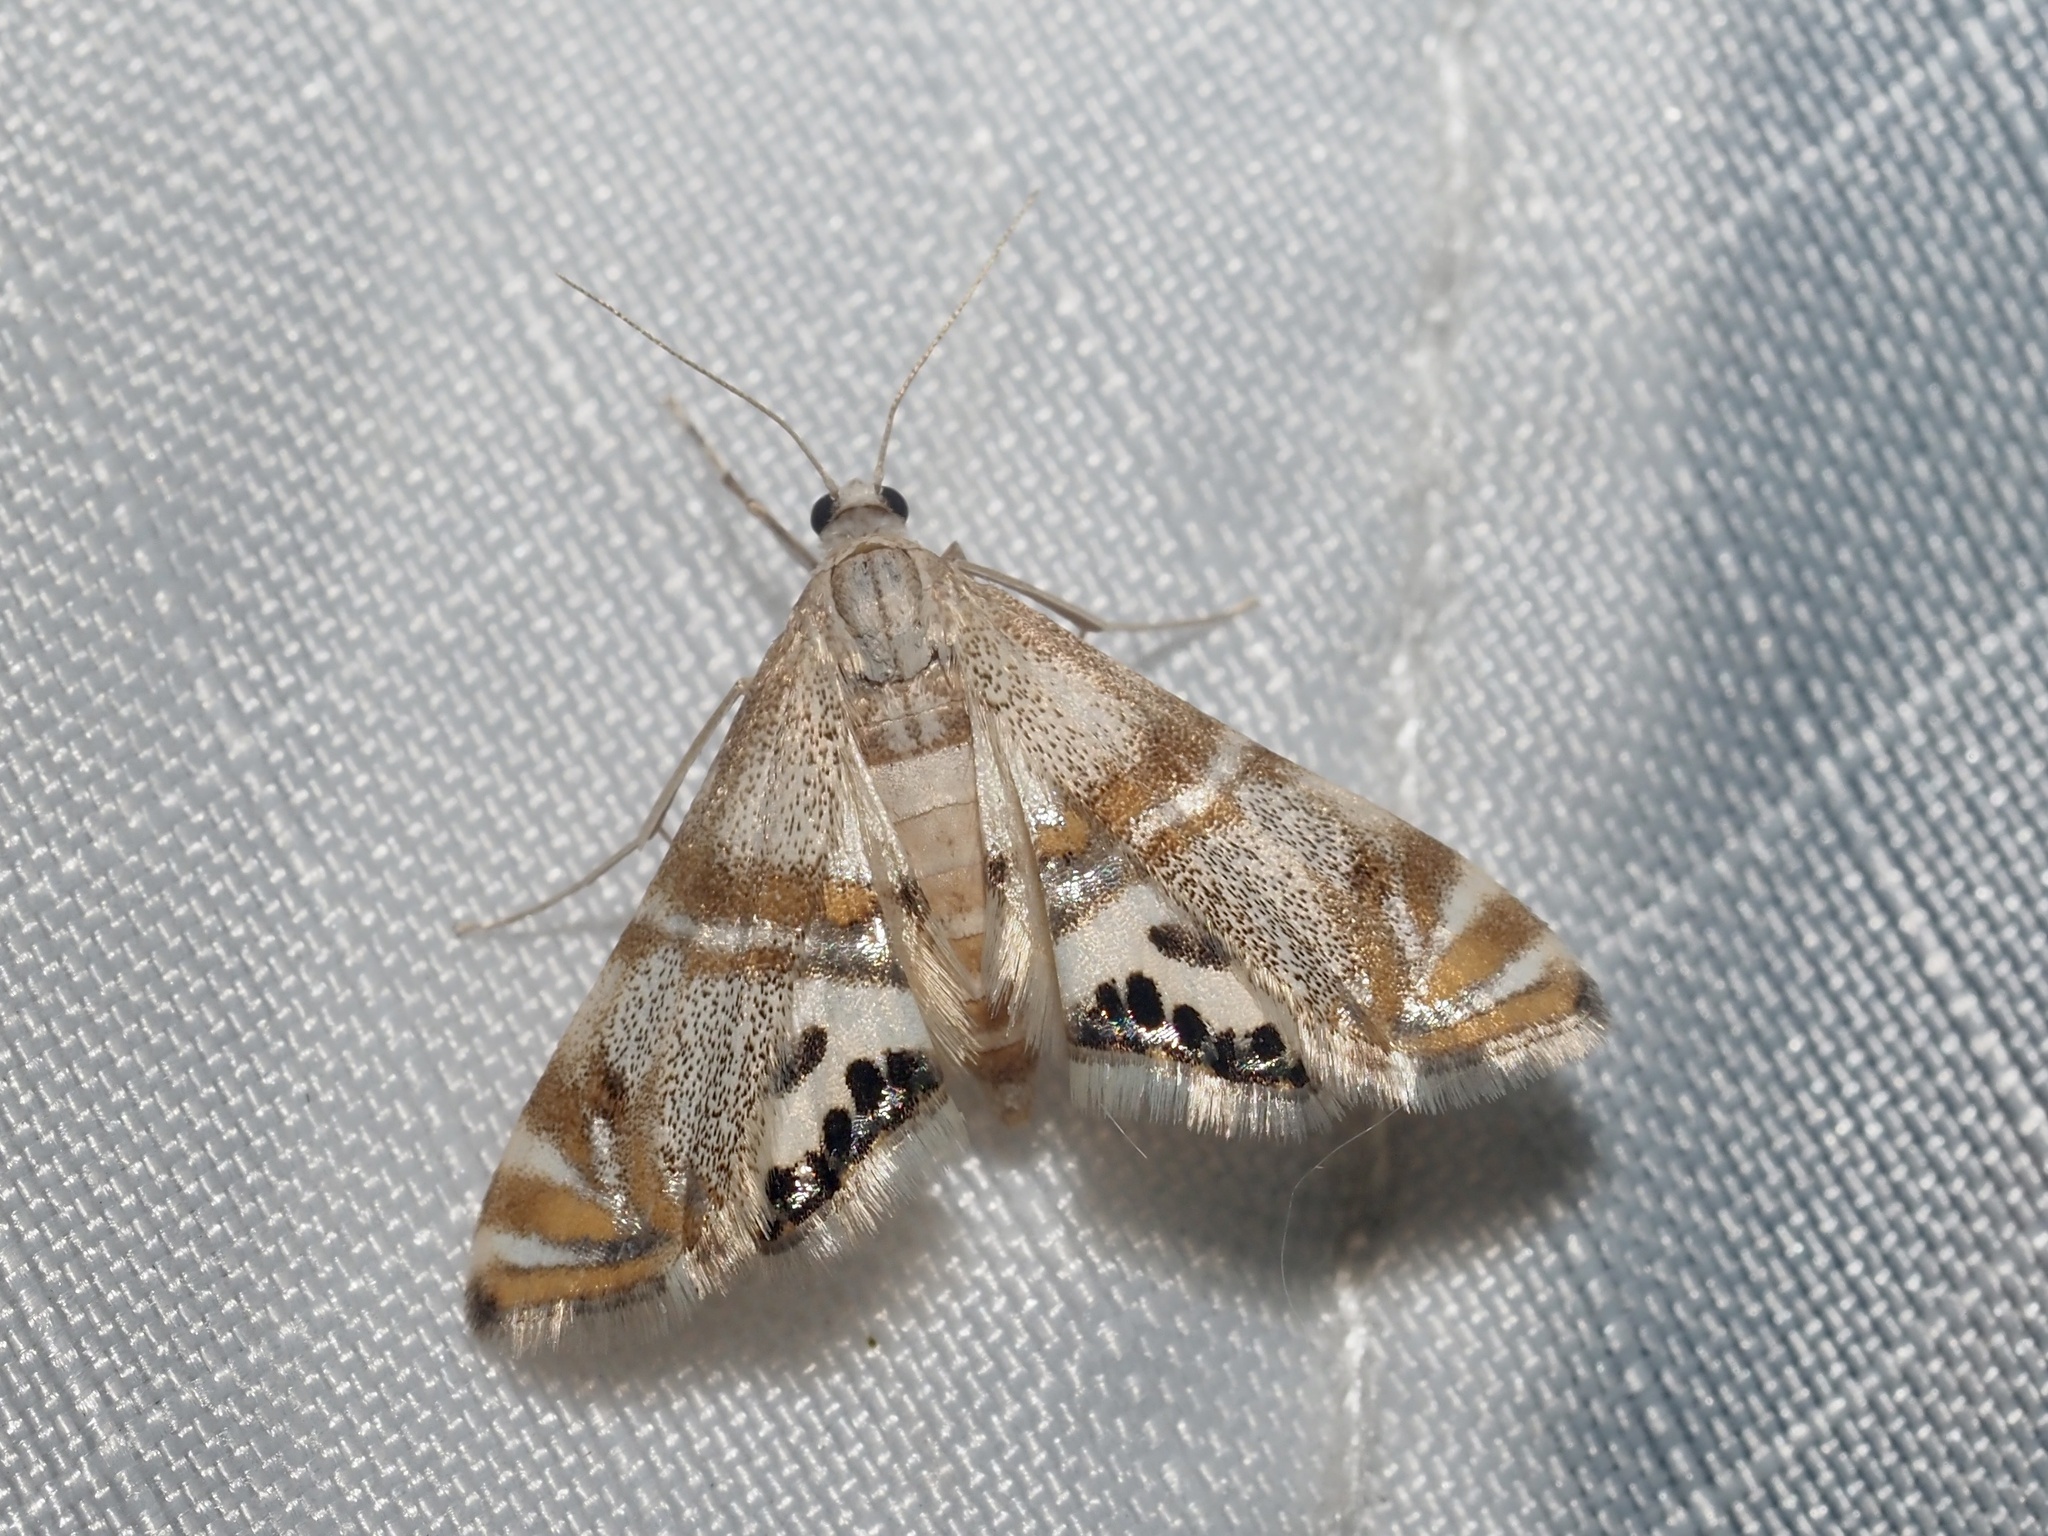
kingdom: Animalia
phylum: Arthropoda
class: Insecta
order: Lepidoptera
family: Crambidae
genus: Petrophila
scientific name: Petrophila bifascialis
